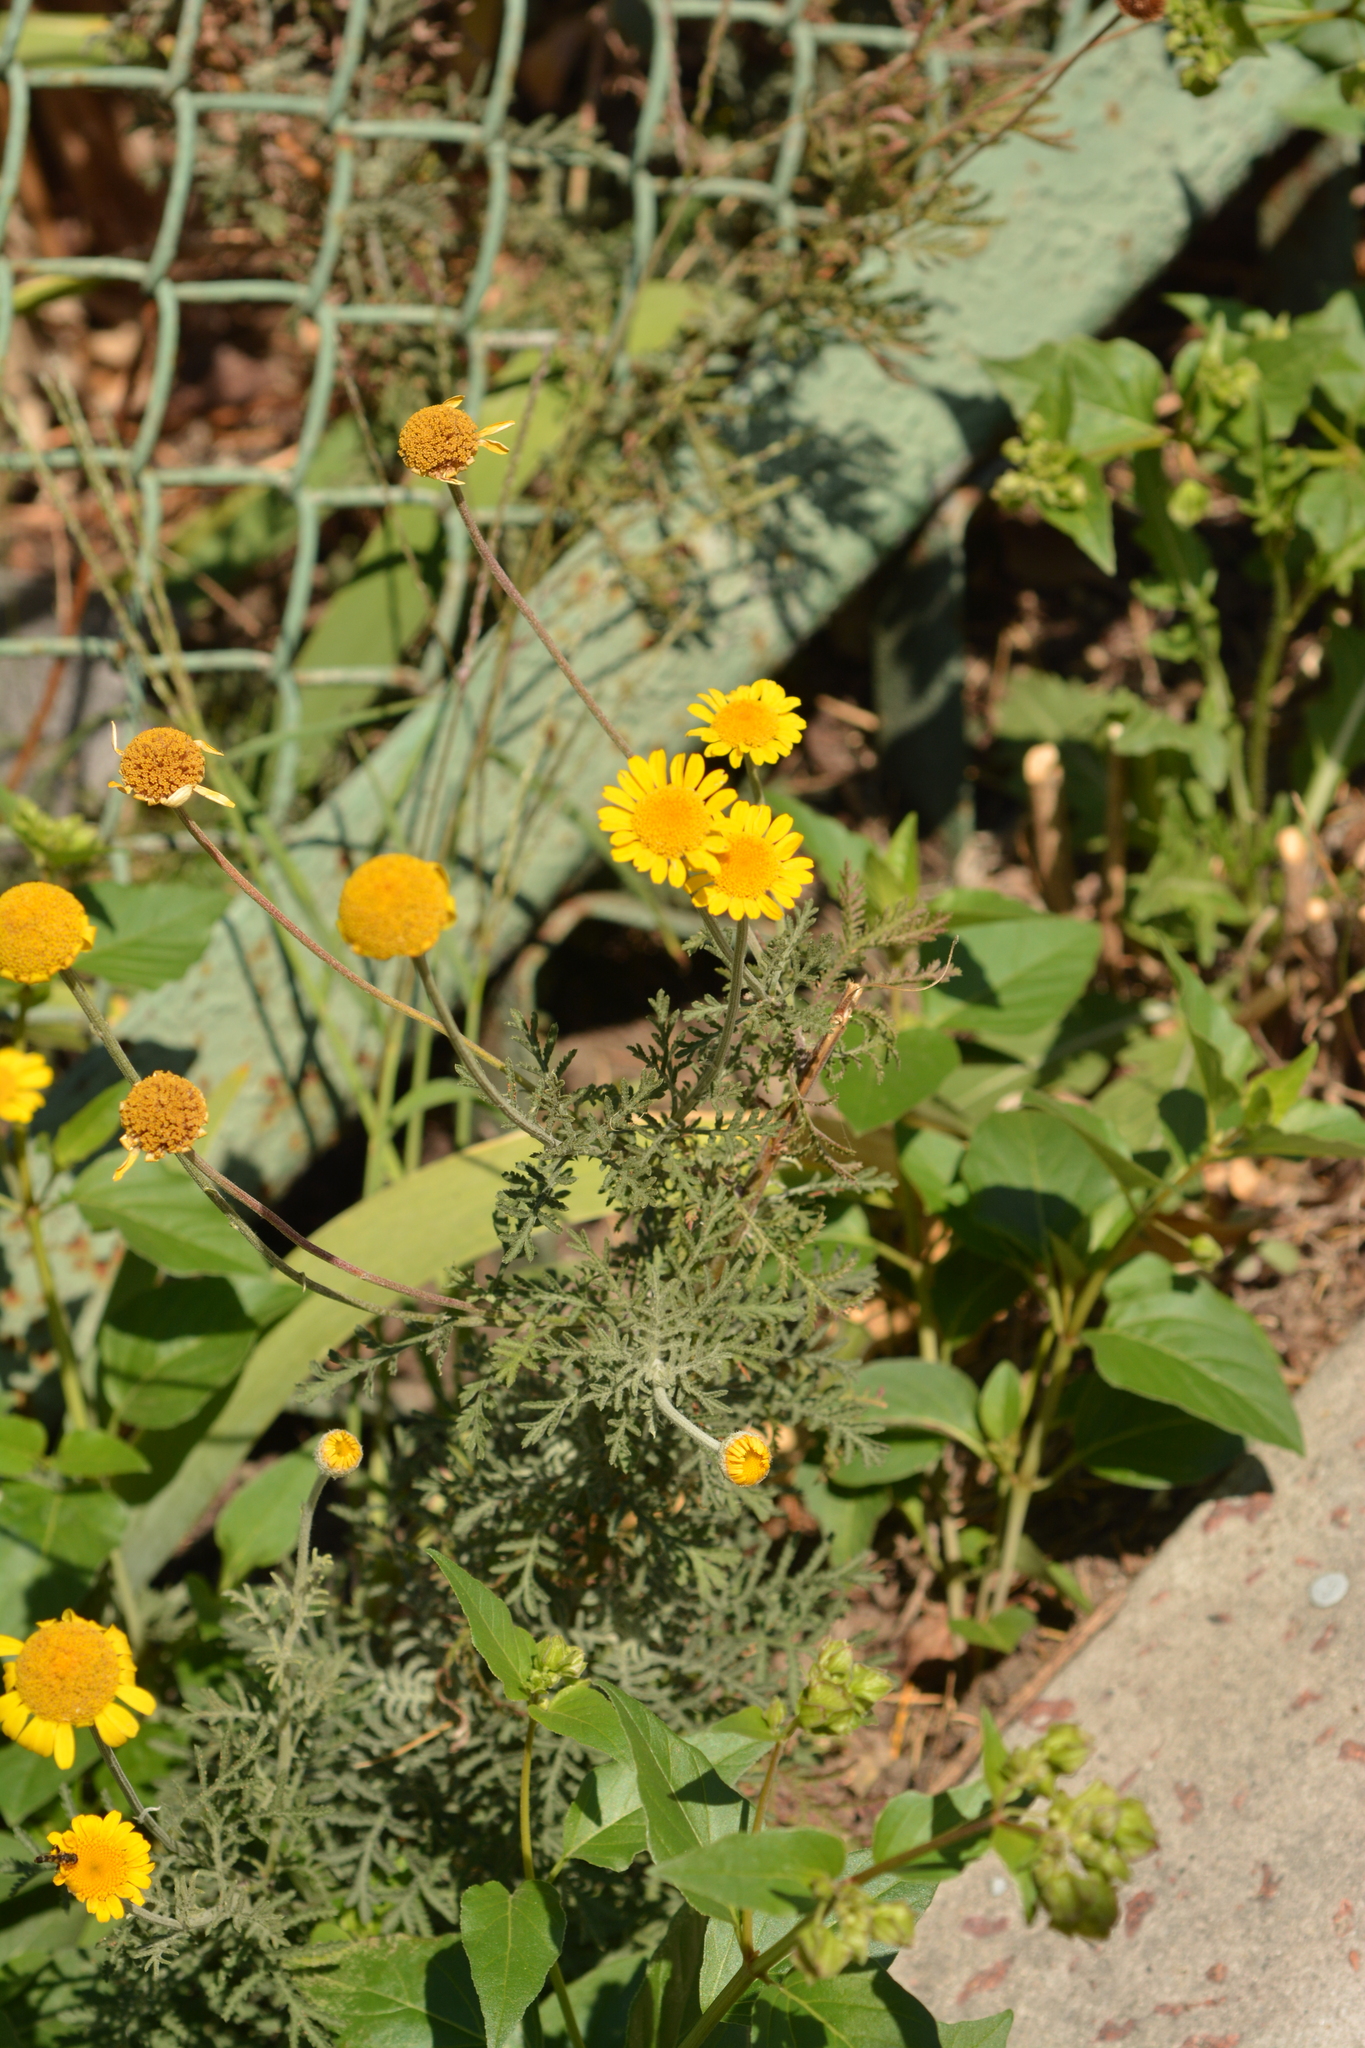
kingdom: Plantae
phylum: Tracheophyta
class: Magnoliopsida
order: Asterales
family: Asteraceae
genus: Cota
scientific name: Cota tinctoria
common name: Golden chamomile
